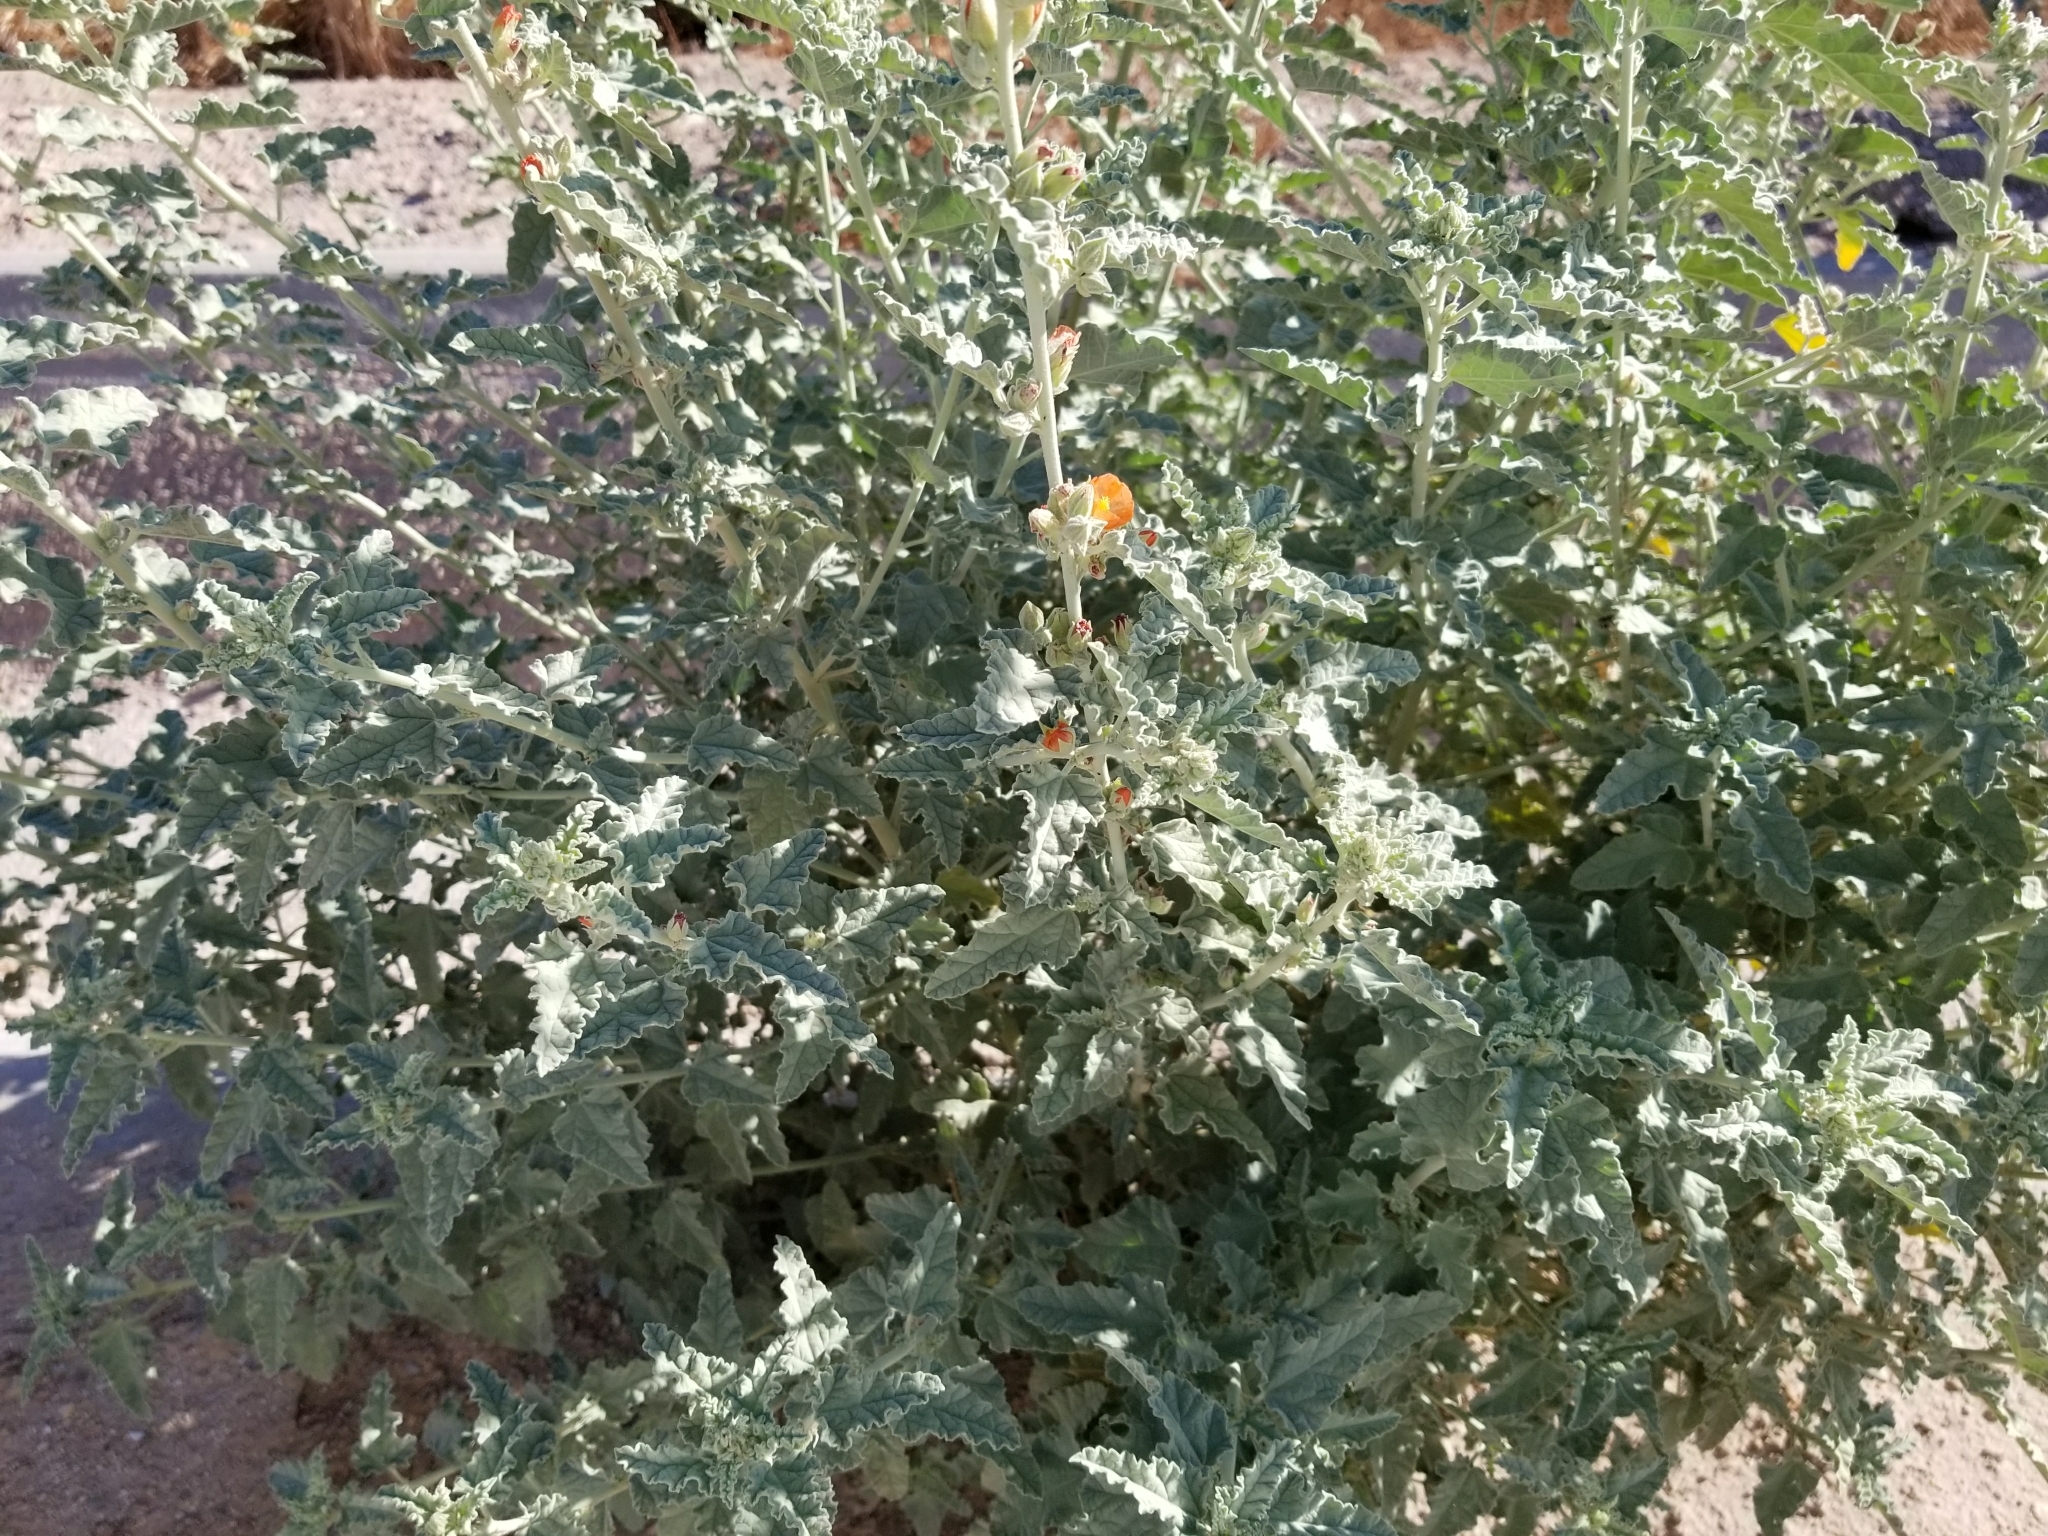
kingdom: Plantae
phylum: Tracheophyta
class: Magnoliopsida
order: Malvales
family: Malvaceae
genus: Sphaeralcea
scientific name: Sphaeralcea ambigua
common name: Apricot globe-mallow
